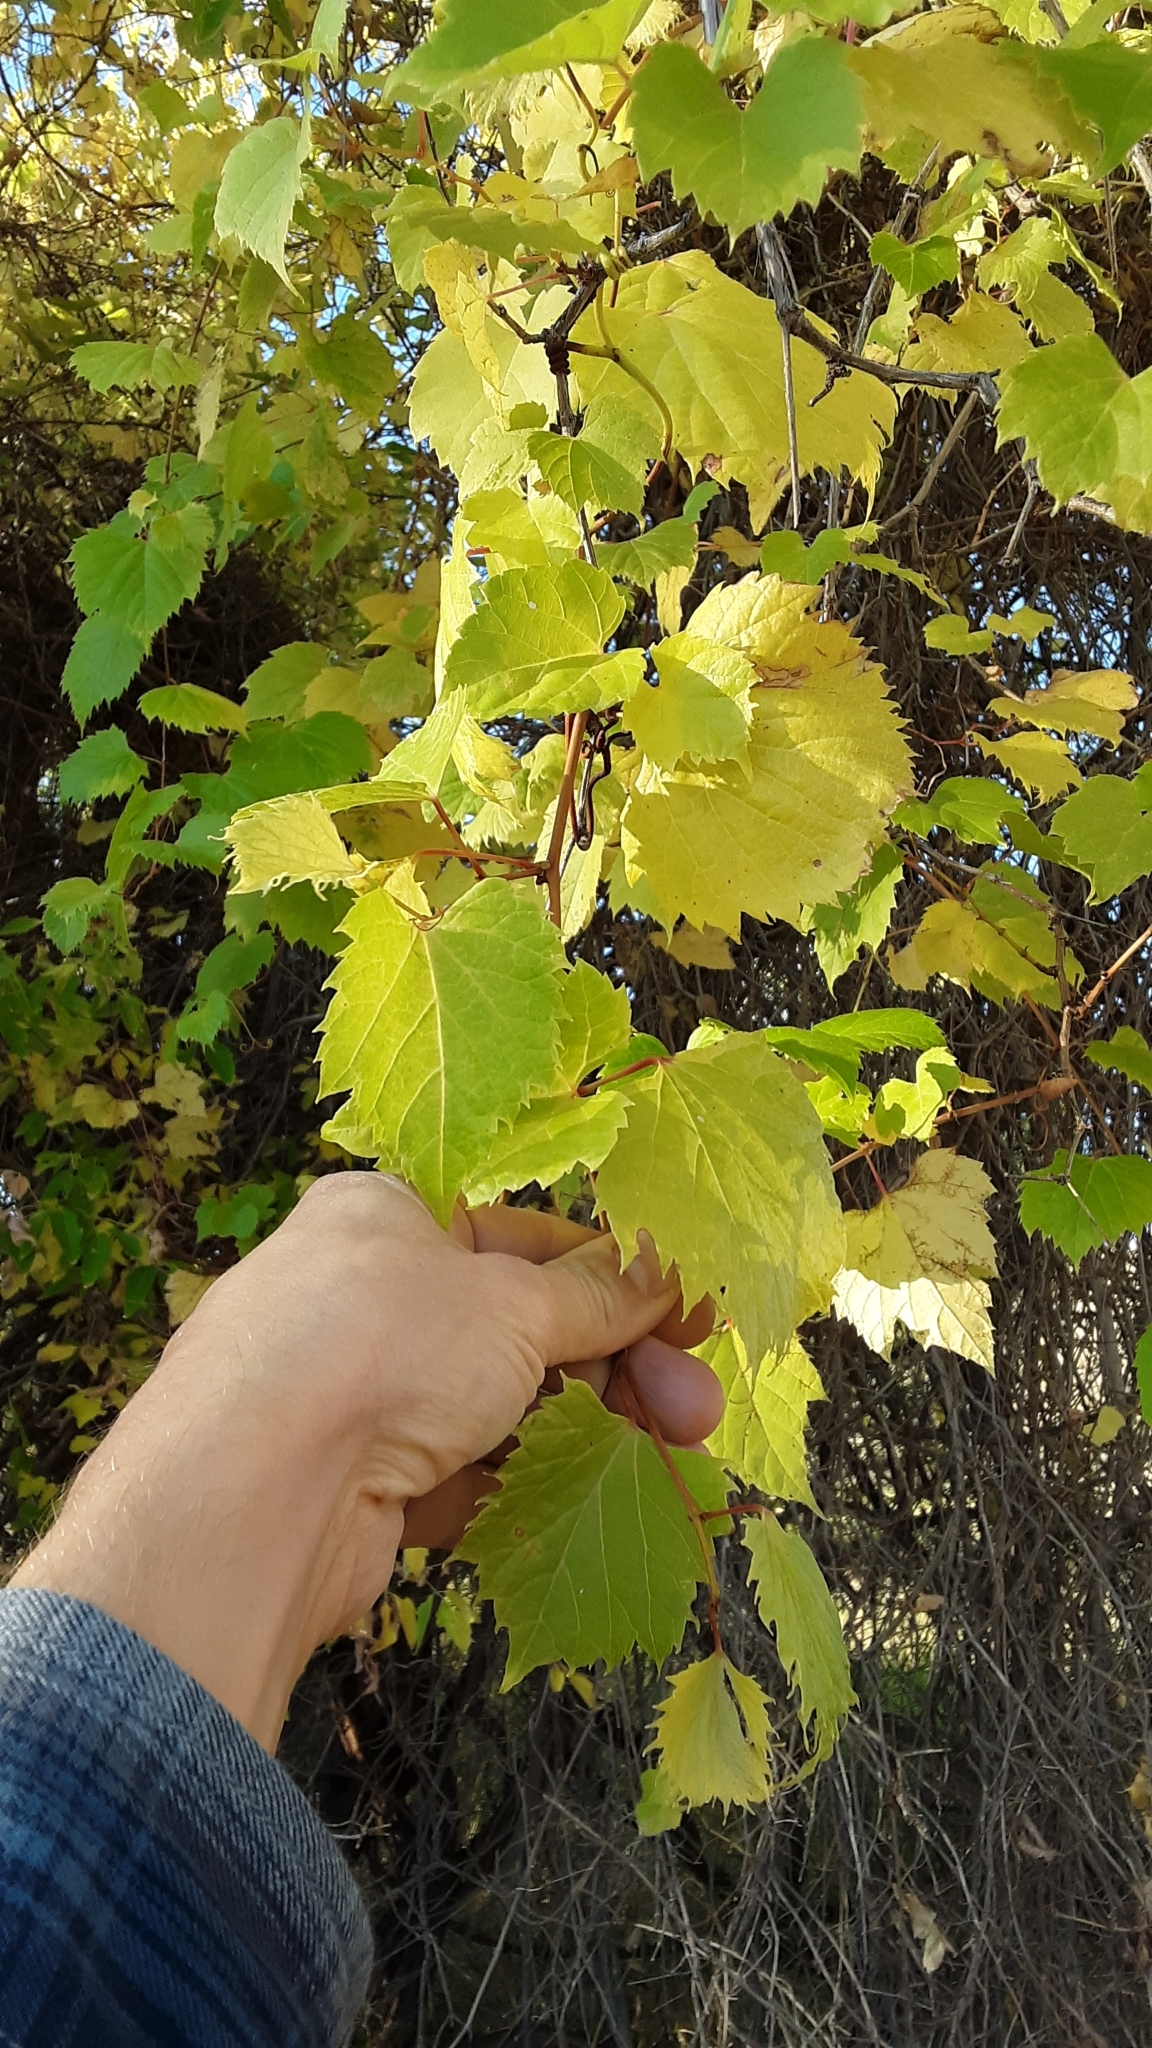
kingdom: Plantae
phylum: Tracheophyta
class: Magnoliopsida
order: Vitales
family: Vitaceae
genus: Vitis
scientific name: Vitis riparia
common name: Frost grape
